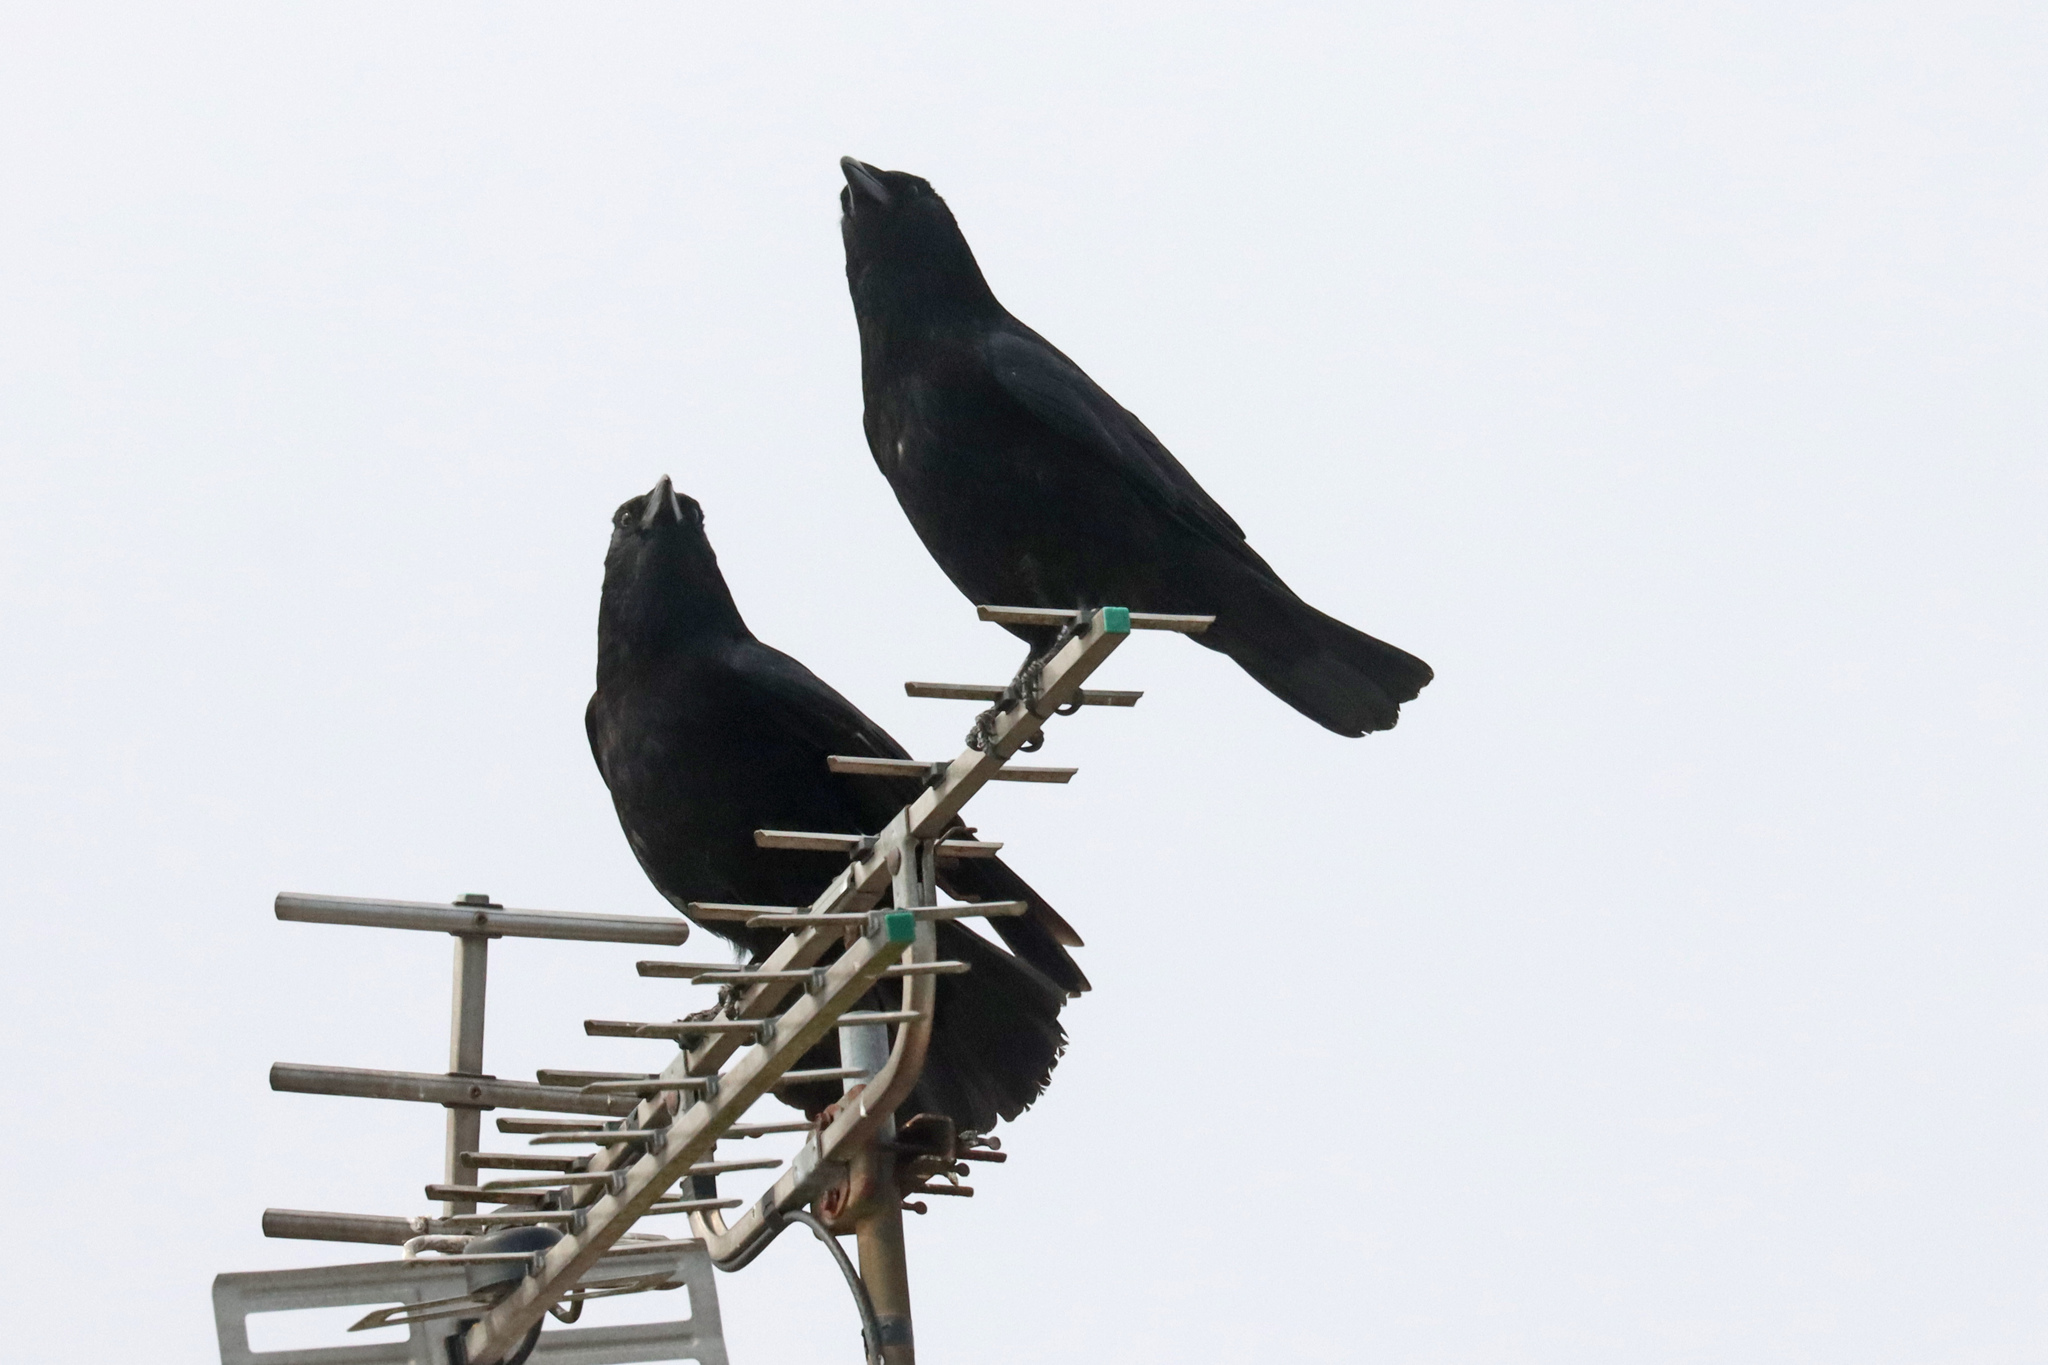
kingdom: Animalia
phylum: Chordata
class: Aves
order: Passeriformes
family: Corvidae
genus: Corvus
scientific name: Corvus corone
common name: Carrion crow
